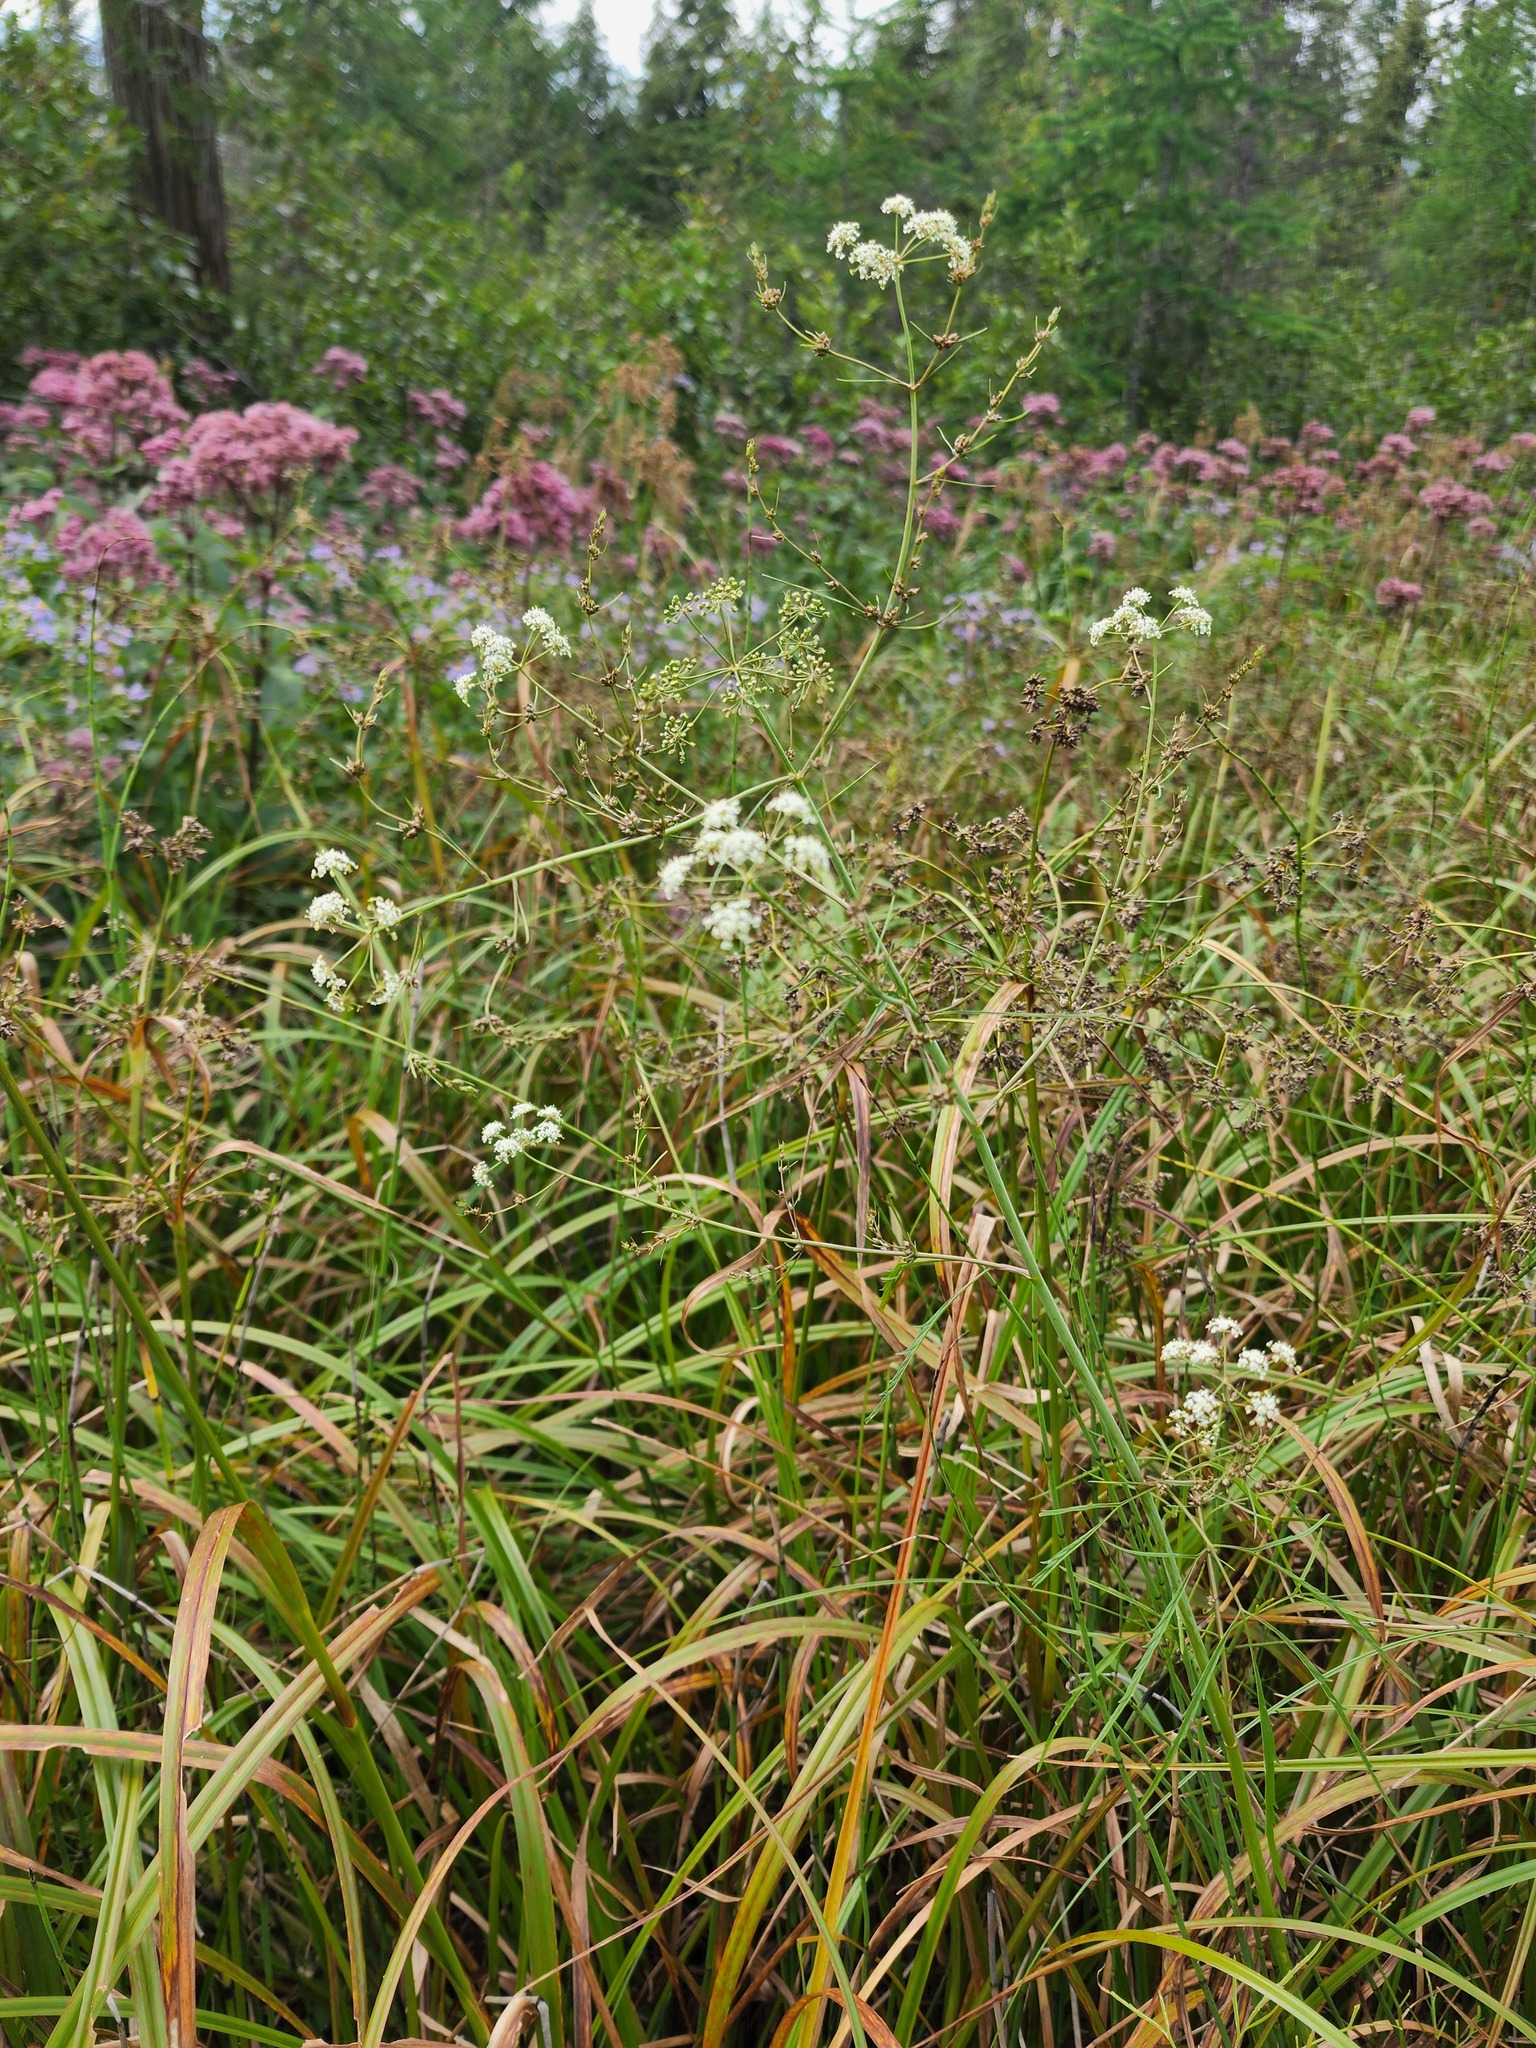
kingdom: Plantae
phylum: Tracheophyta
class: Magnoliopsida
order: Apiales
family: Apiaceae
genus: Cicuta
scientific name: Cicuta bulbifera
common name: Bulb-bearing water-hemlock
